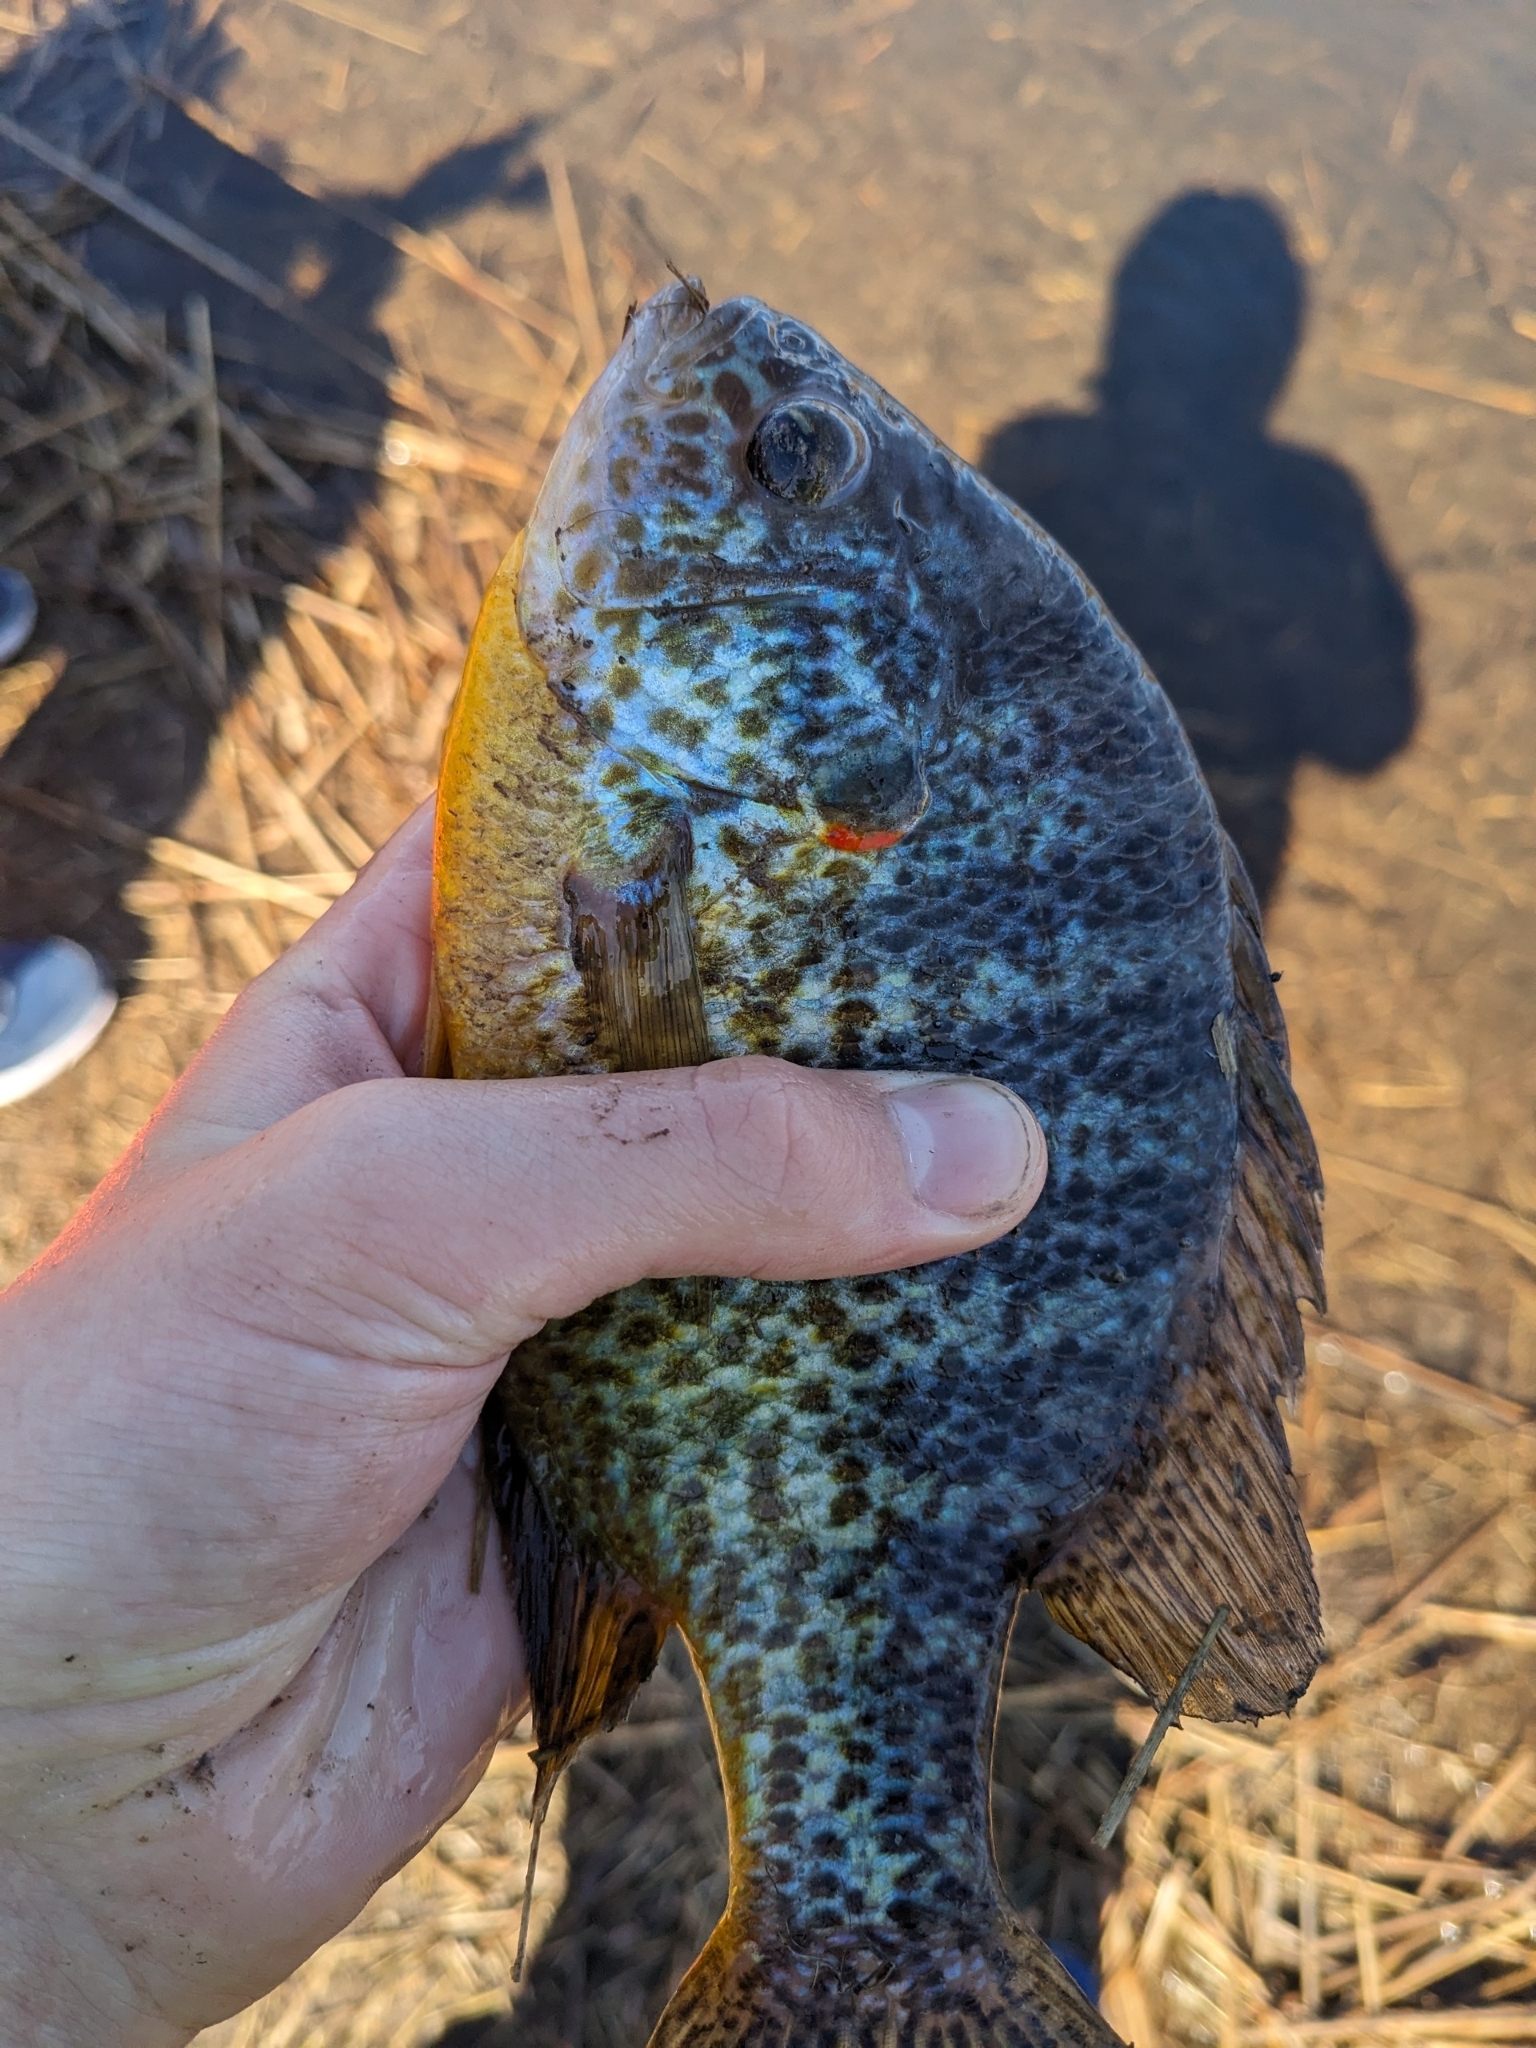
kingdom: Animalia
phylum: Chordata
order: Perciformes
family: Centrarchidae
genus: Lepomis
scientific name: Lepomis gibbosus
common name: Pumpkinseed
